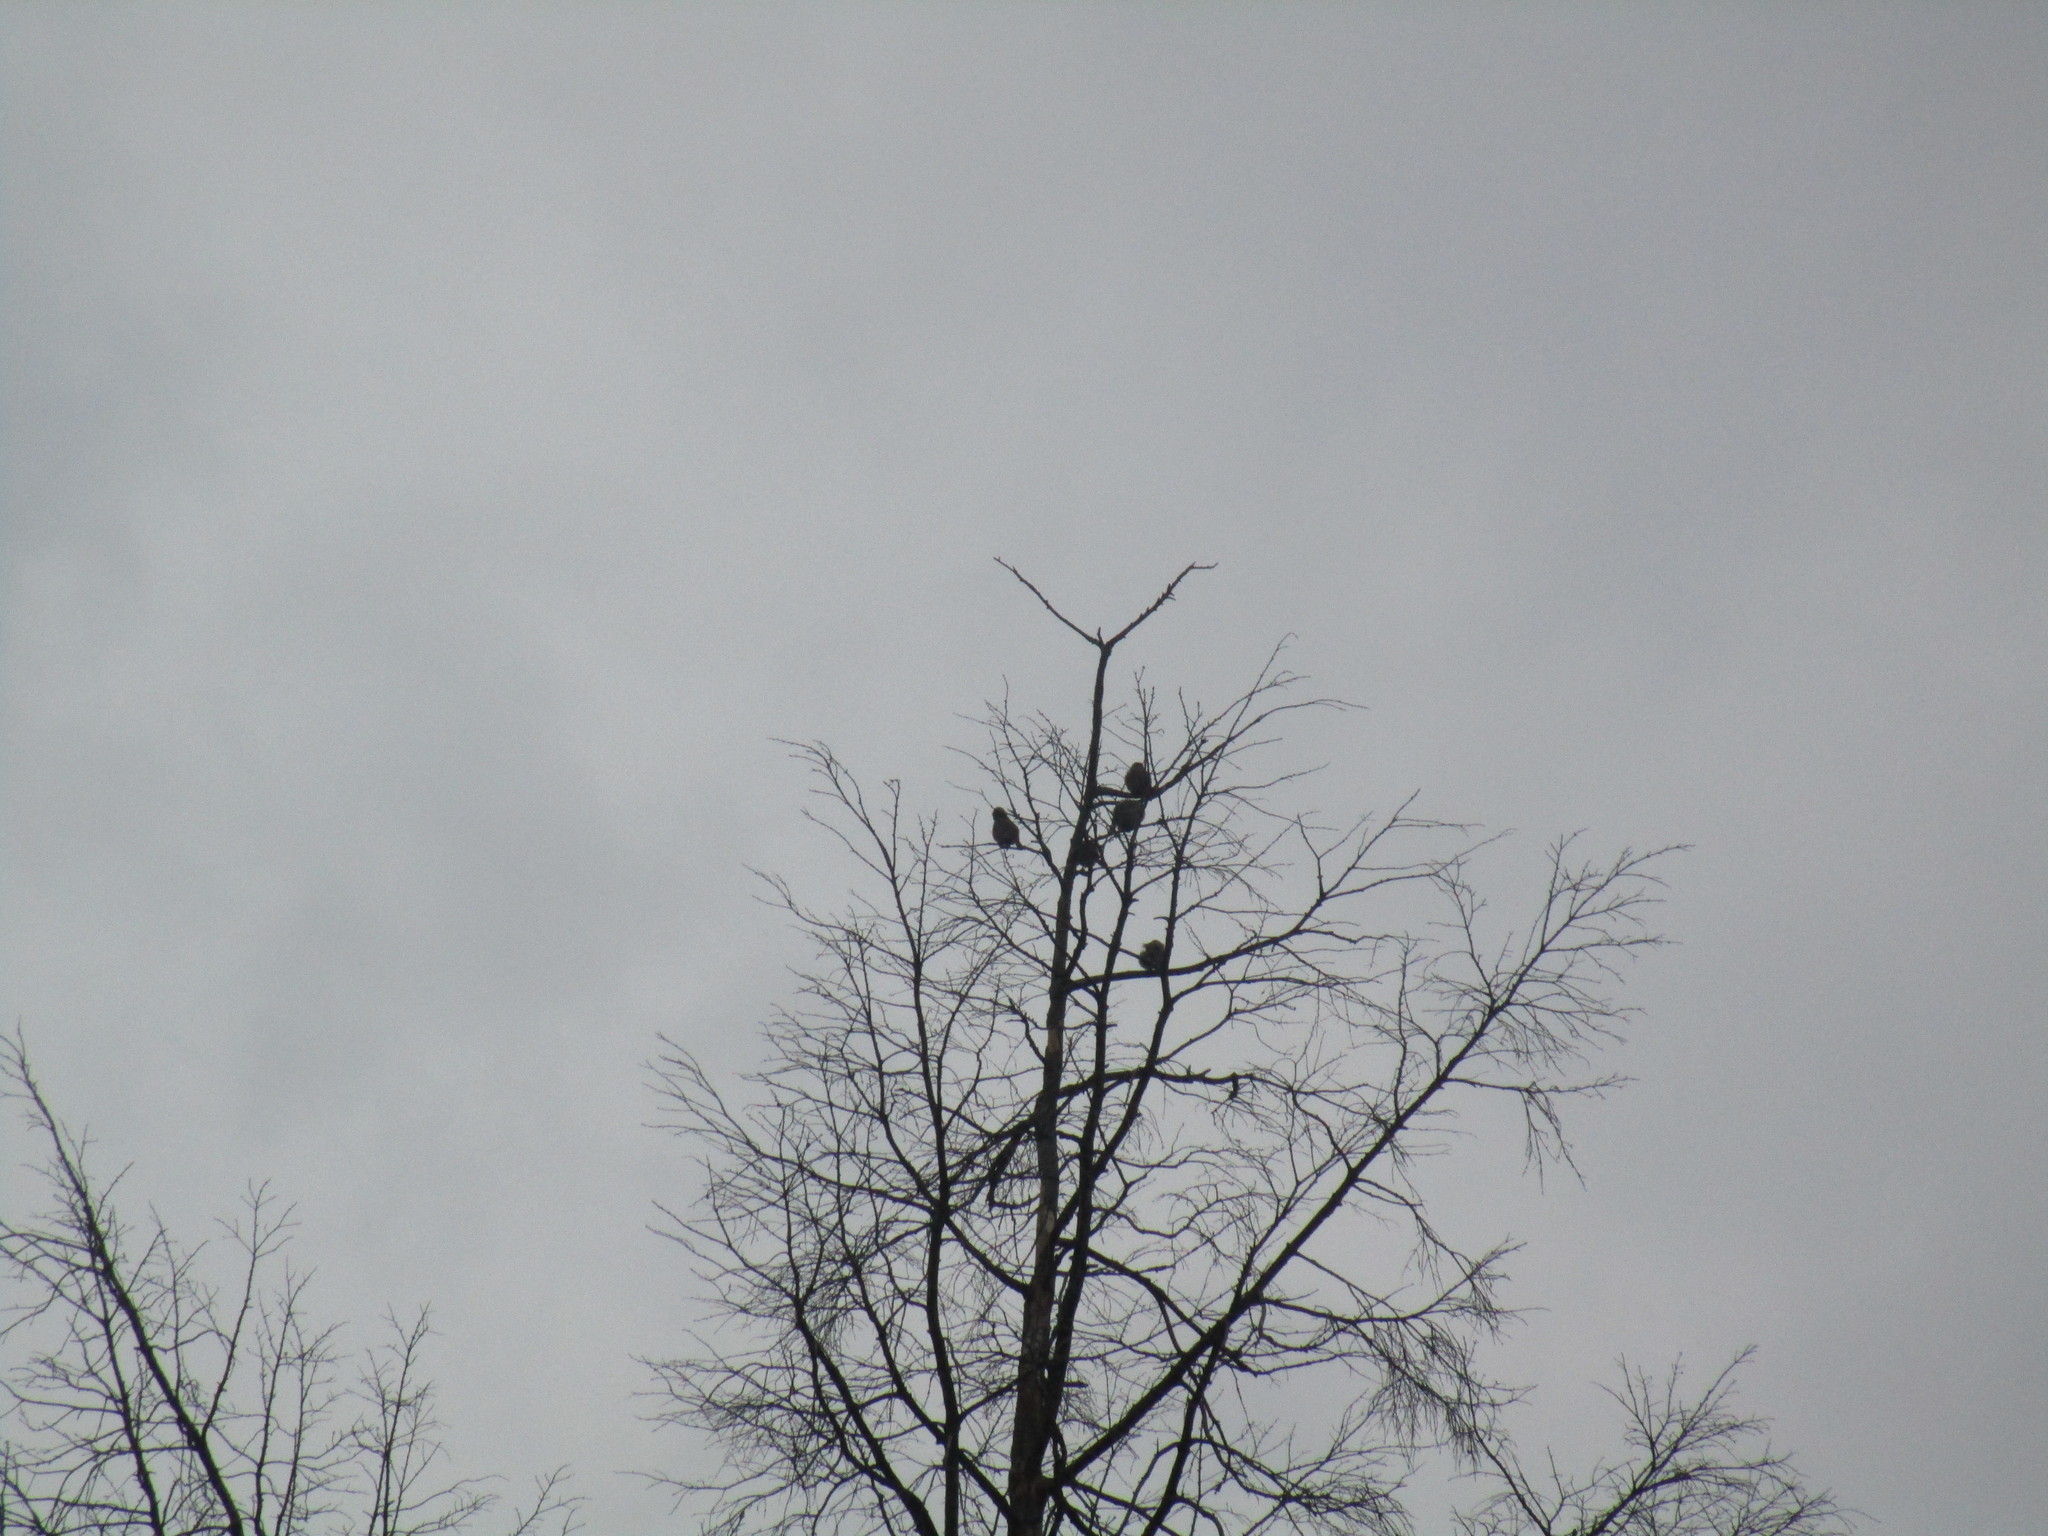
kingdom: Animalia
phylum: Chordata
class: Aves
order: Passeriformes
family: Passeridae
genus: Passer
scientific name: Passer domesticus
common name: House sparrow
